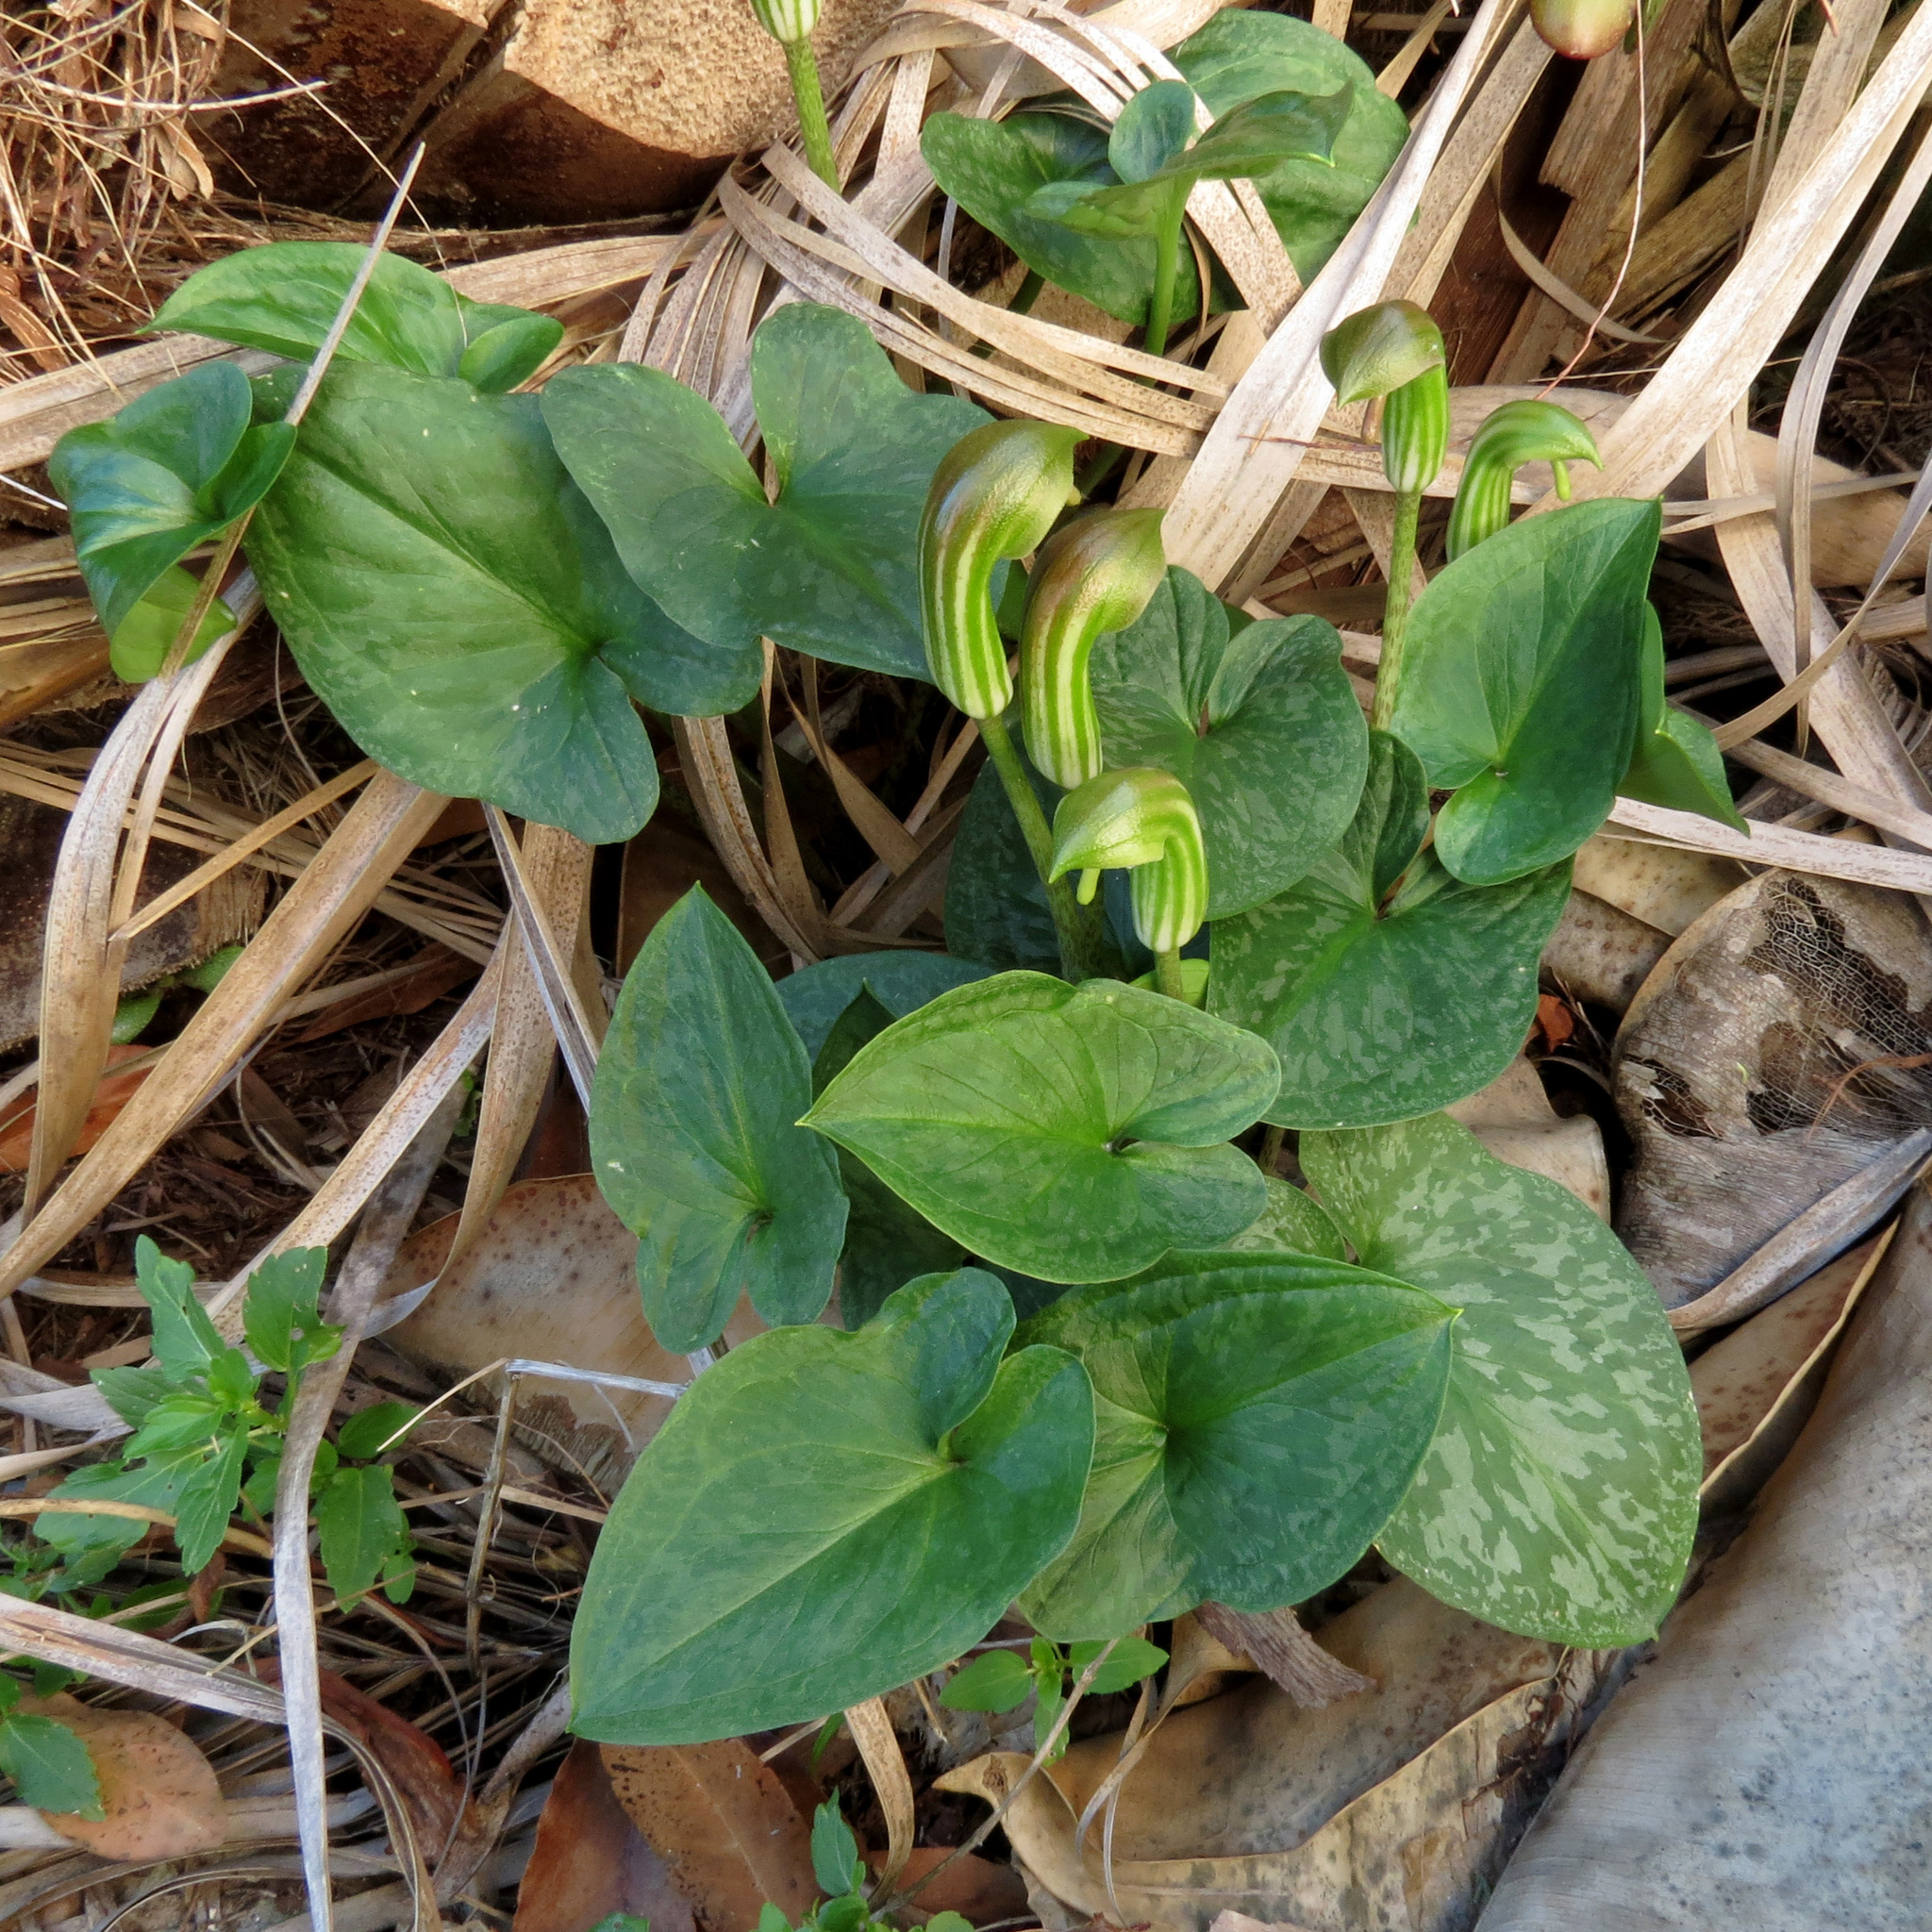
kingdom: Plantae
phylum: Tracheophyta
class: Liliopsida
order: Alismatales
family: Araceae
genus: Arisarum
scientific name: Arisarum vulgare
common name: Common arisarum
